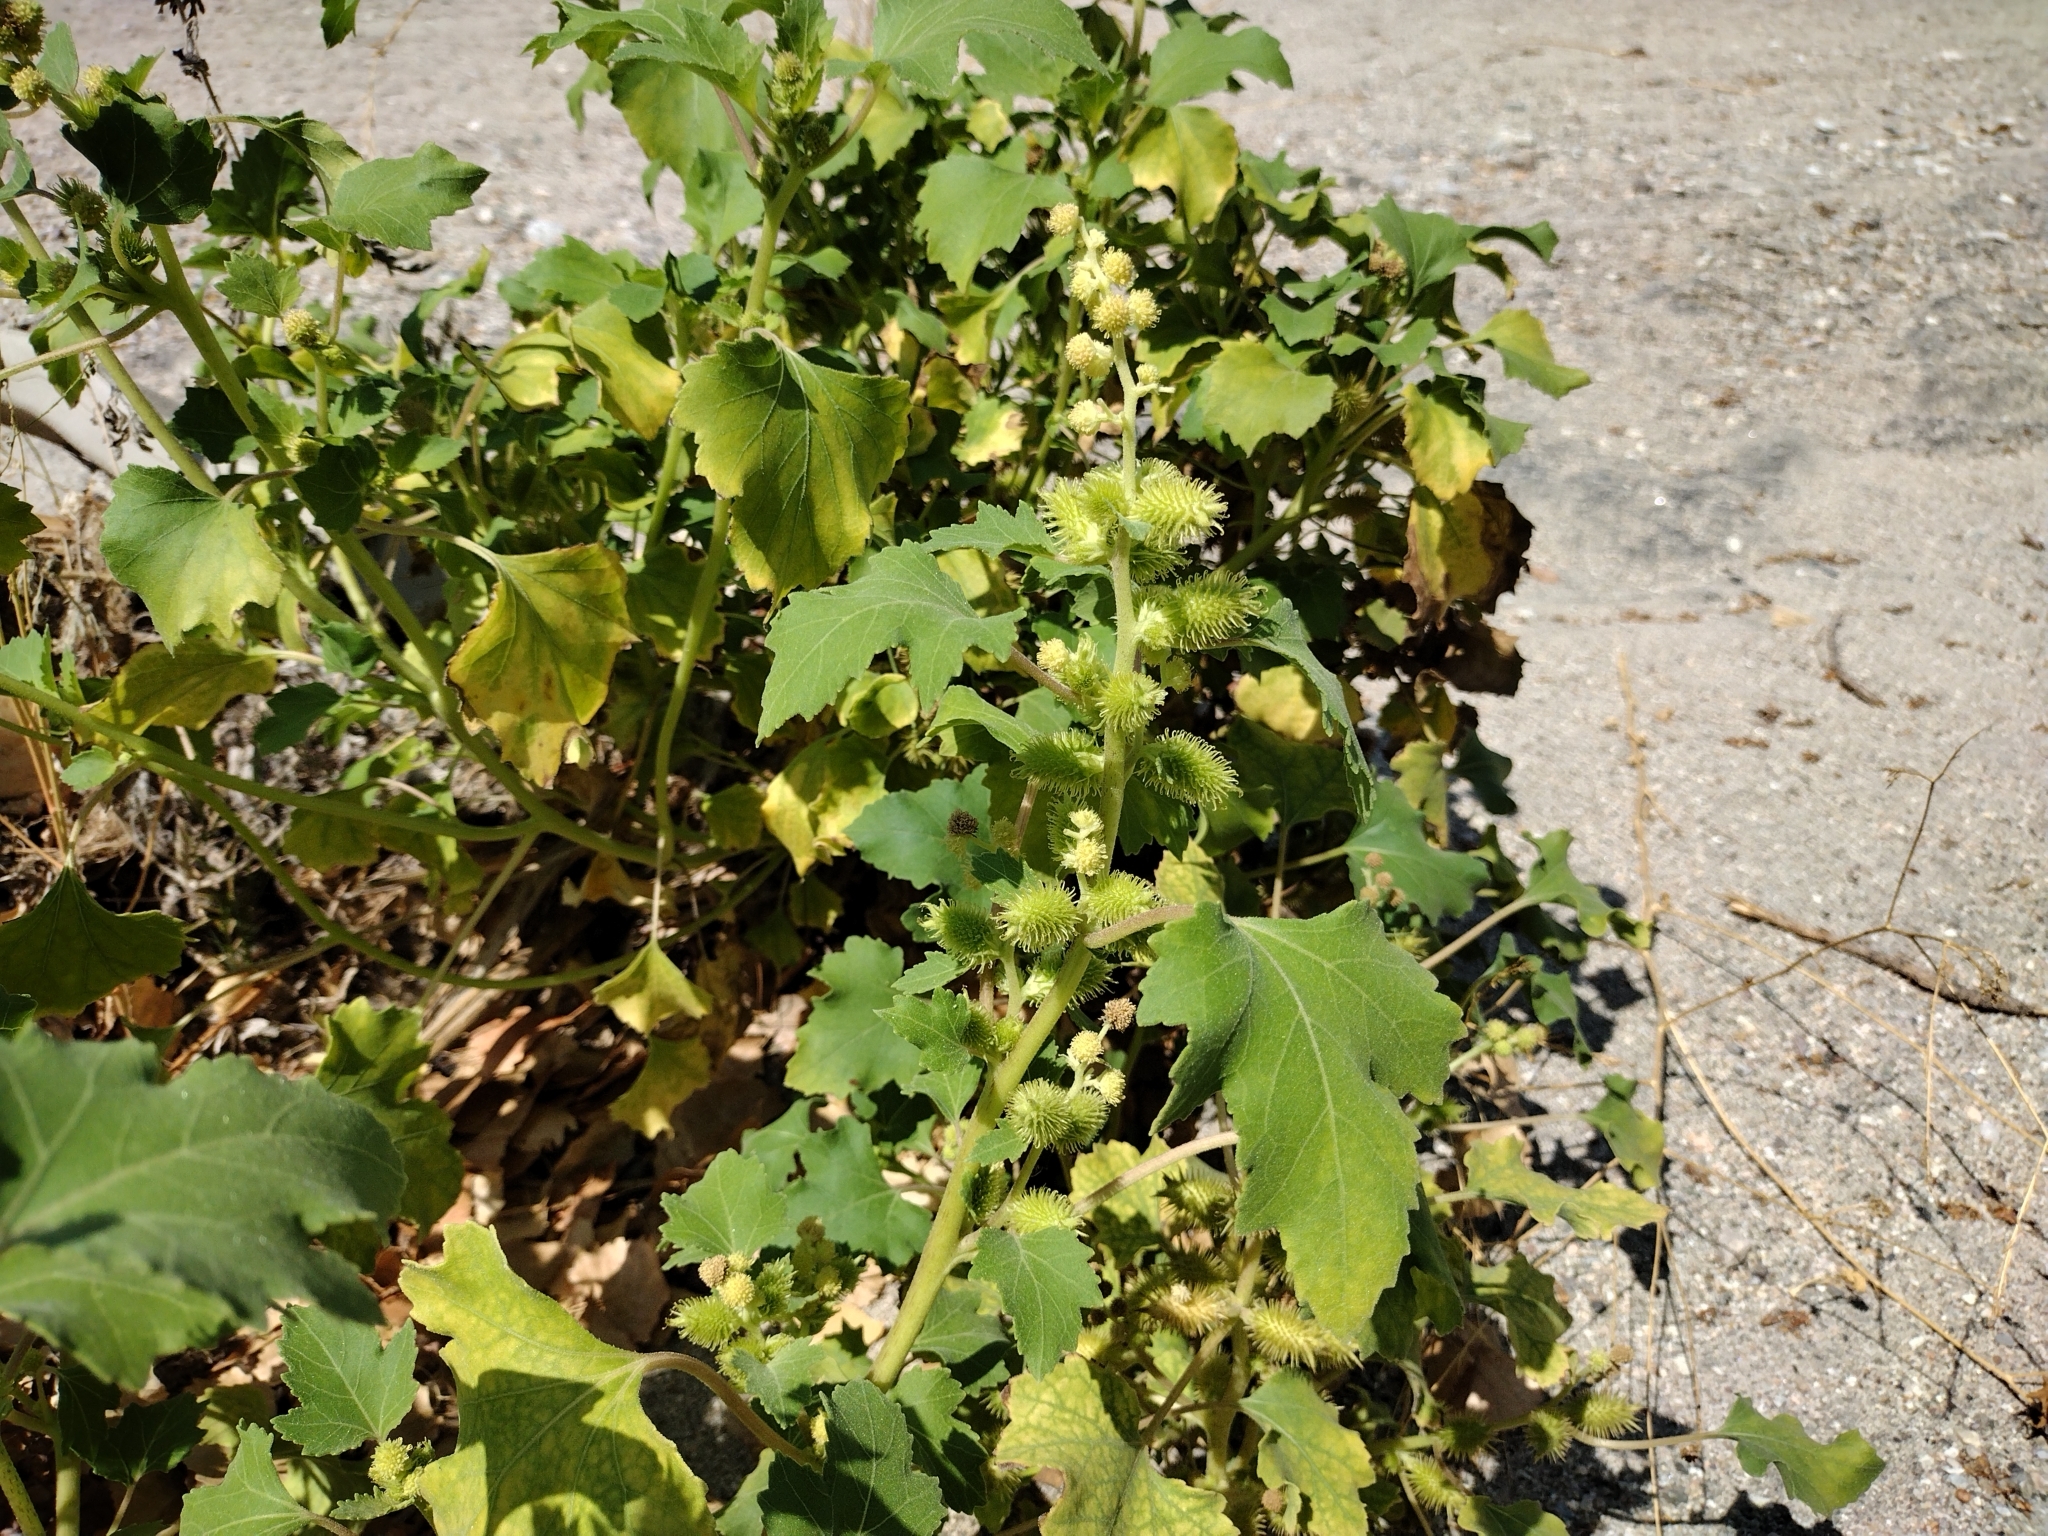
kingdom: Plantae
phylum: Tracheophyta
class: Magnoliopsida
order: Asterales
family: Asteraceae
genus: Xanthium
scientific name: Xanthium strumarium
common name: Rough cocklebur
